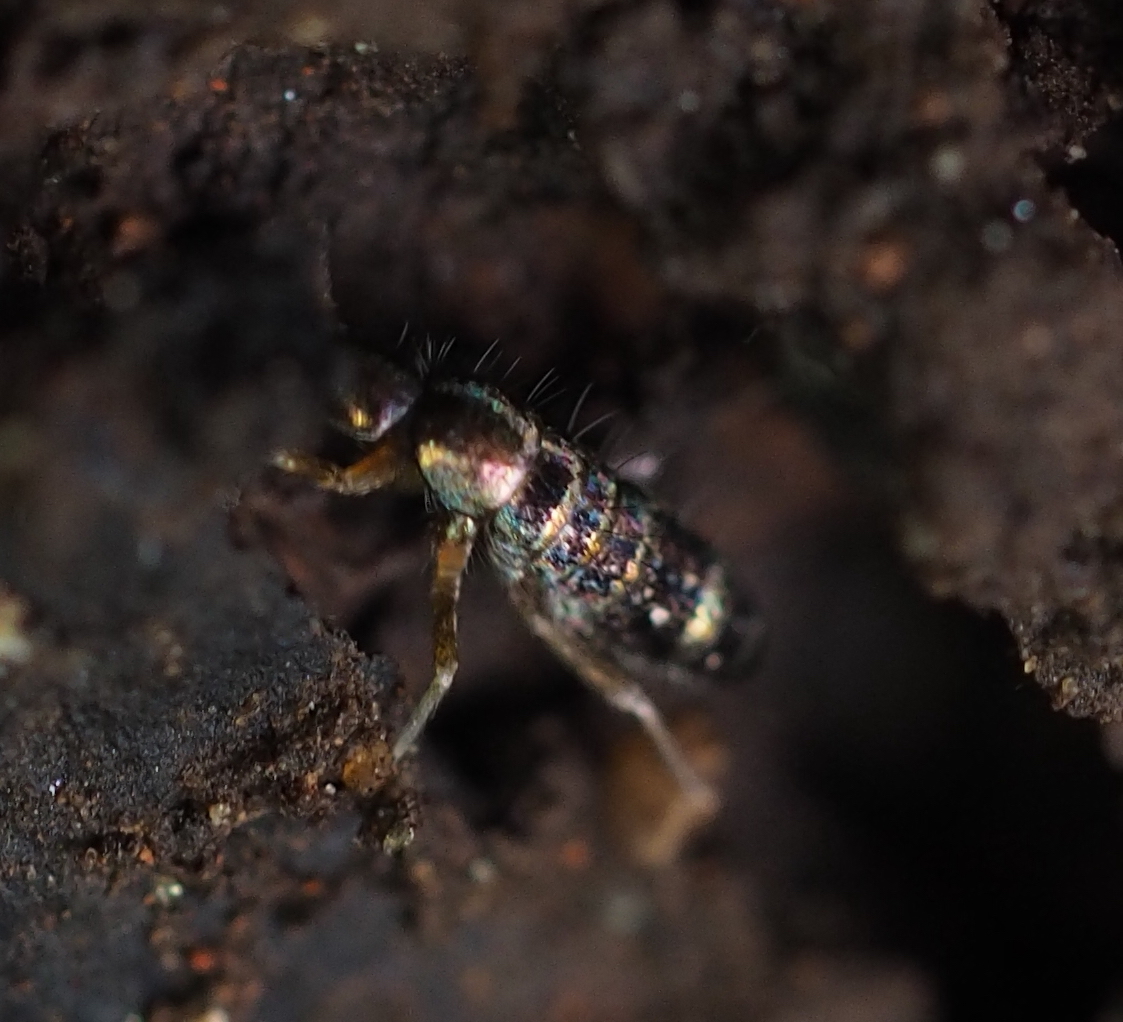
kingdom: Animalia
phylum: Arthropoda
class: Collembola
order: Entomobryomorpha
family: Tomoceridae
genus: Tomocerus
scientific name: Tomocerus vulgaris
